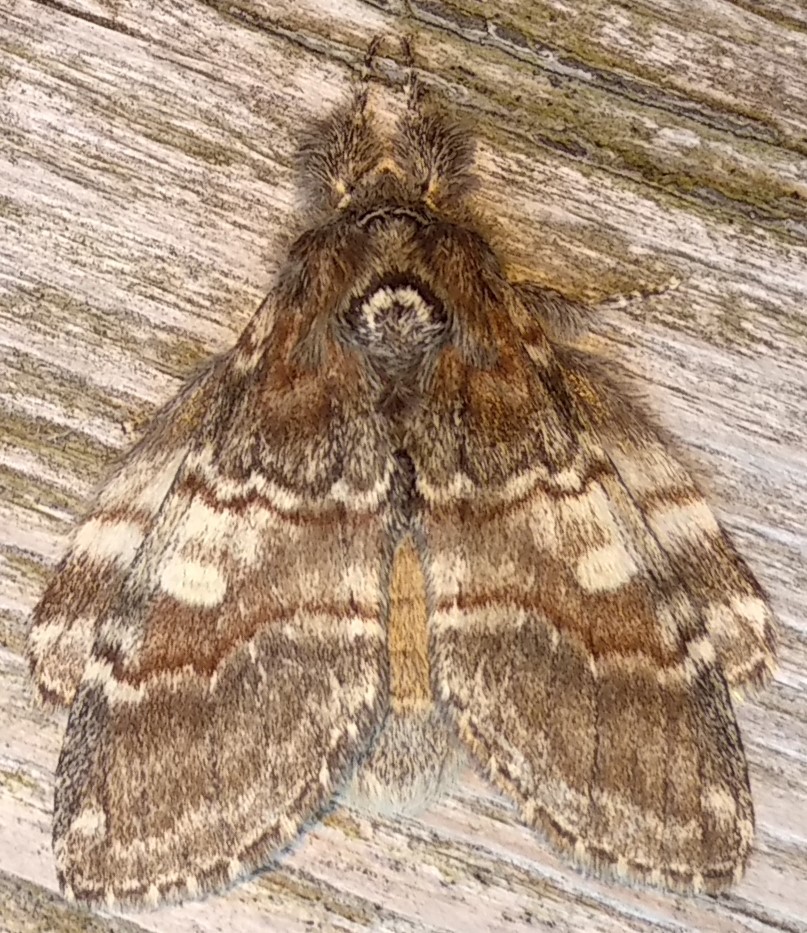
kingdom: Animalia
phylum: Arthropoda
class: Insecta
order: Lepidoptera
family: Notodontidae
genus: Peridea
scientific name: Peridea ferruginea
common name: Chocolate prominent
